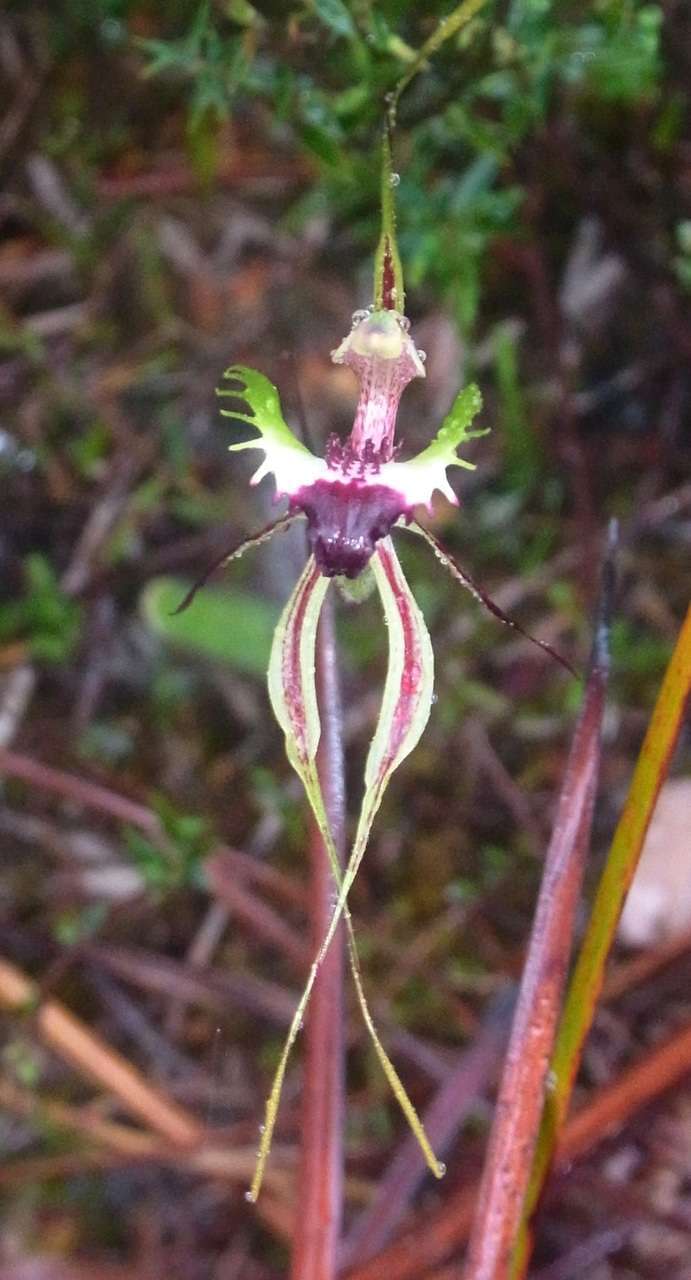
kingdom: Plantae
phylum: Tracheophyta
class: Liliopsida
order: Asparagales
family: Orchidaceae
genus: Caladenia
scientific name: Caladenia dilatata
